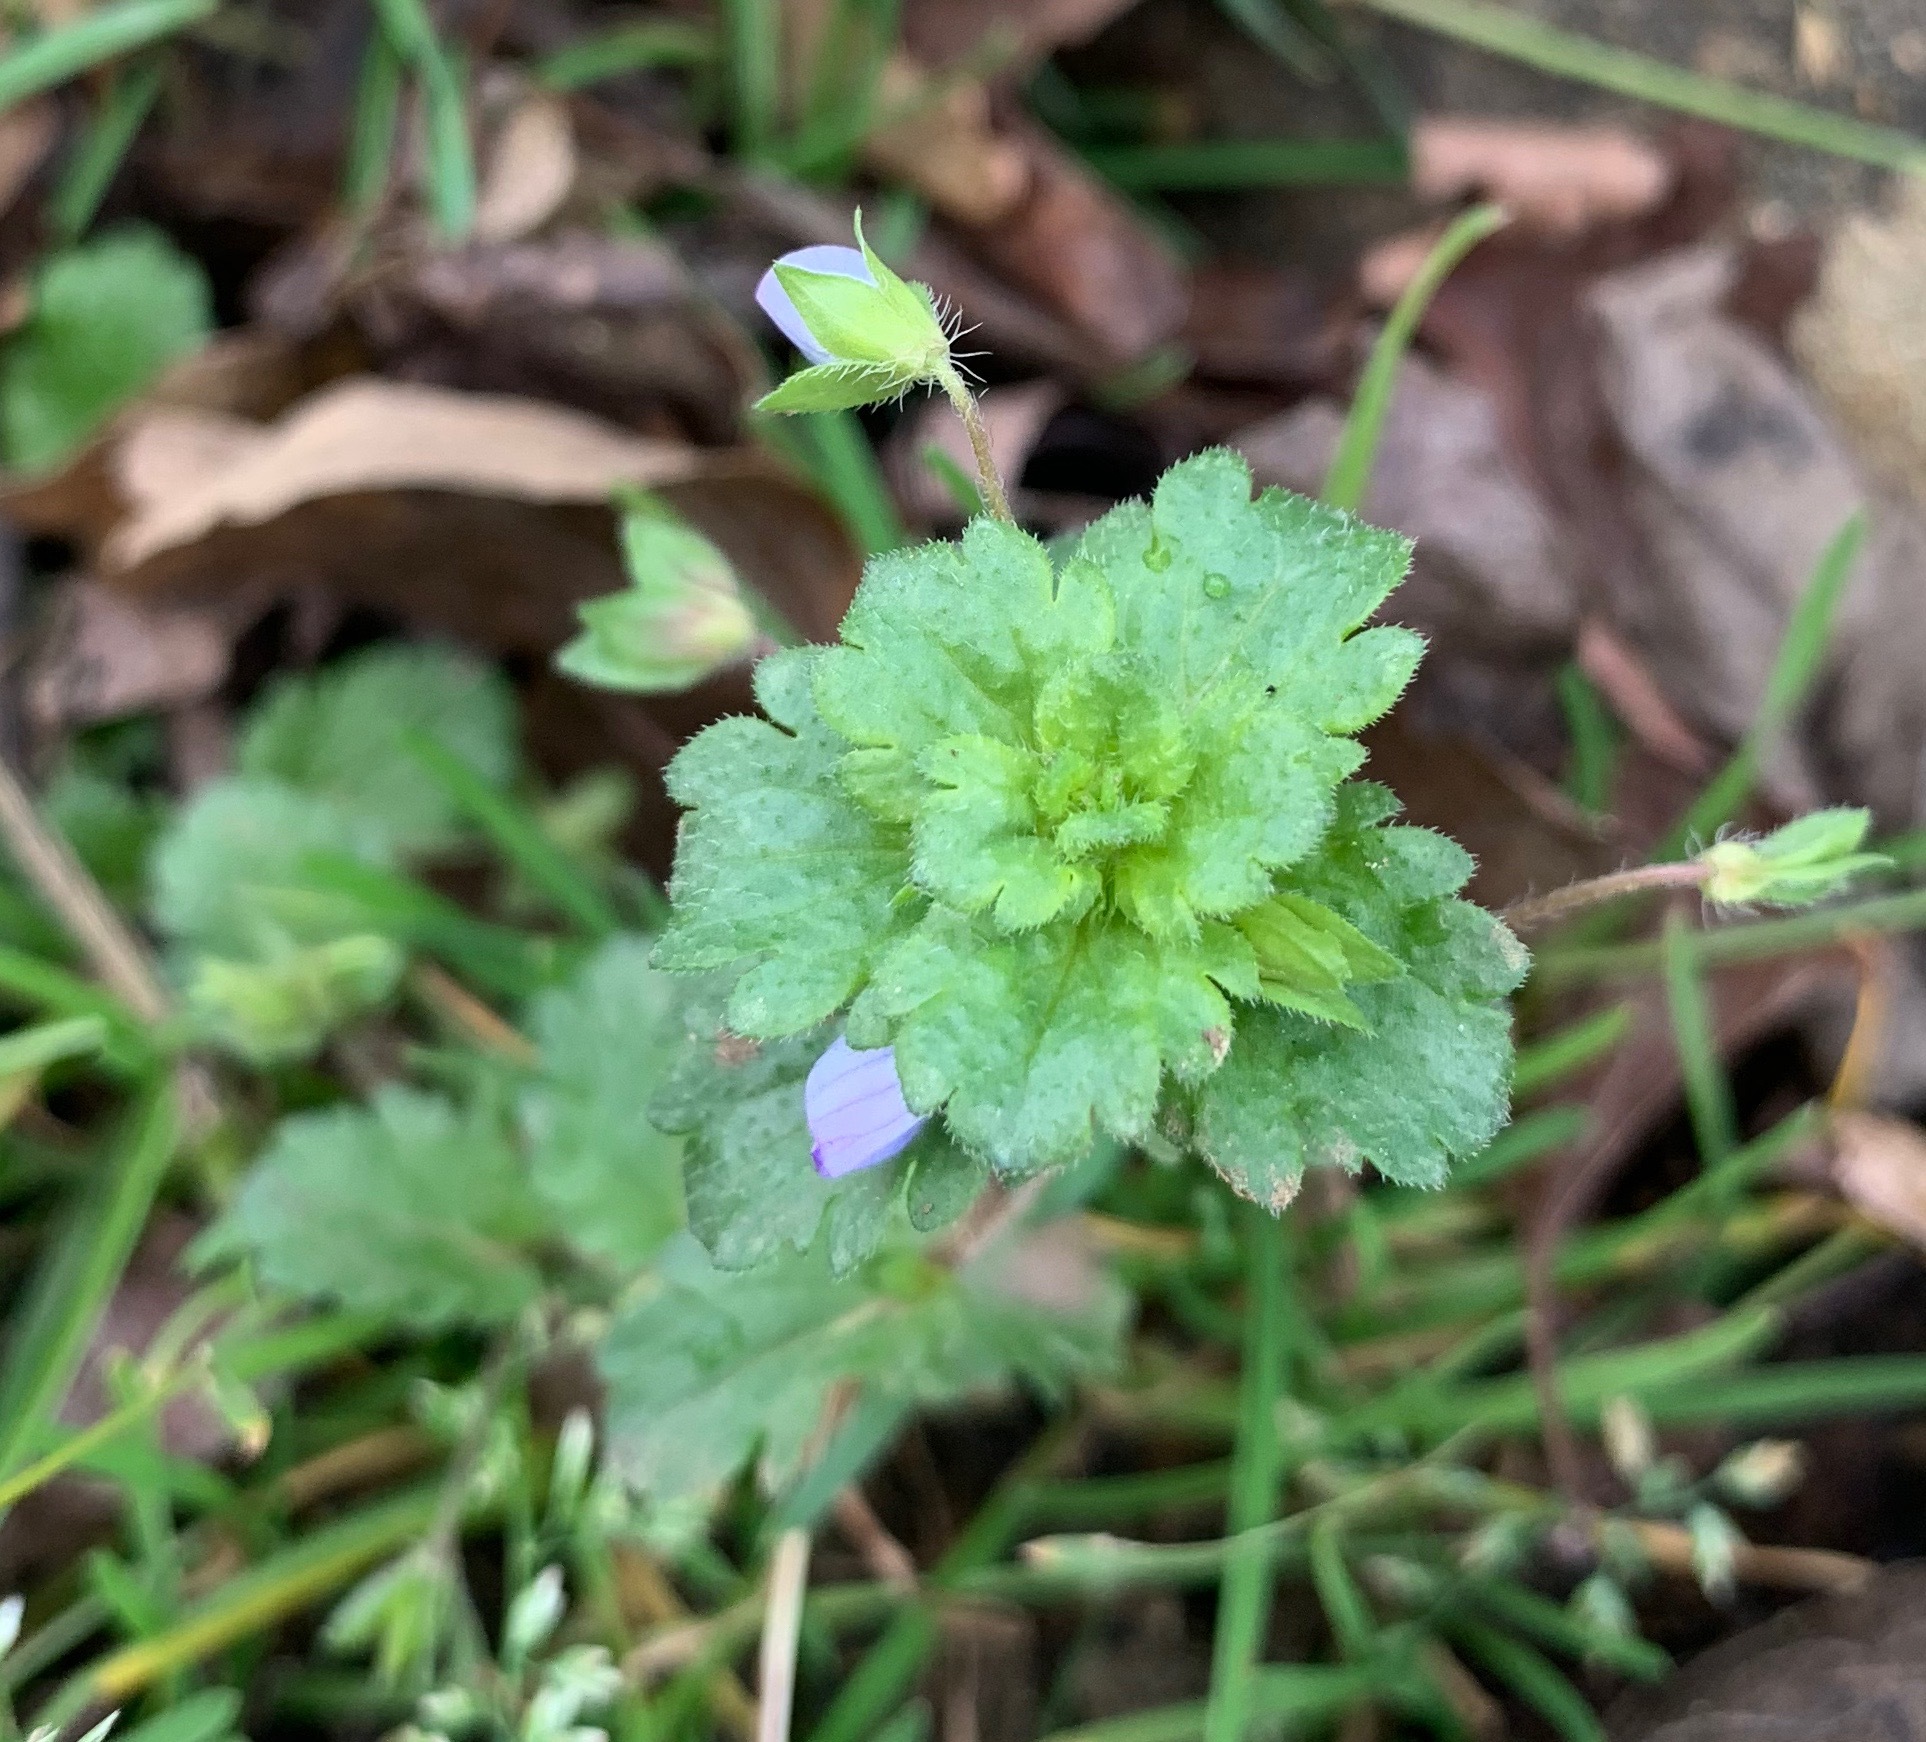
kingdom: Plantae
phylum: Tracheophyta
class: Magnoliopsida
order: Lamiales
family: Plantaginaceae
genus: Veronica
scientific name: Veronica persica
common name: Common field-speedwell
